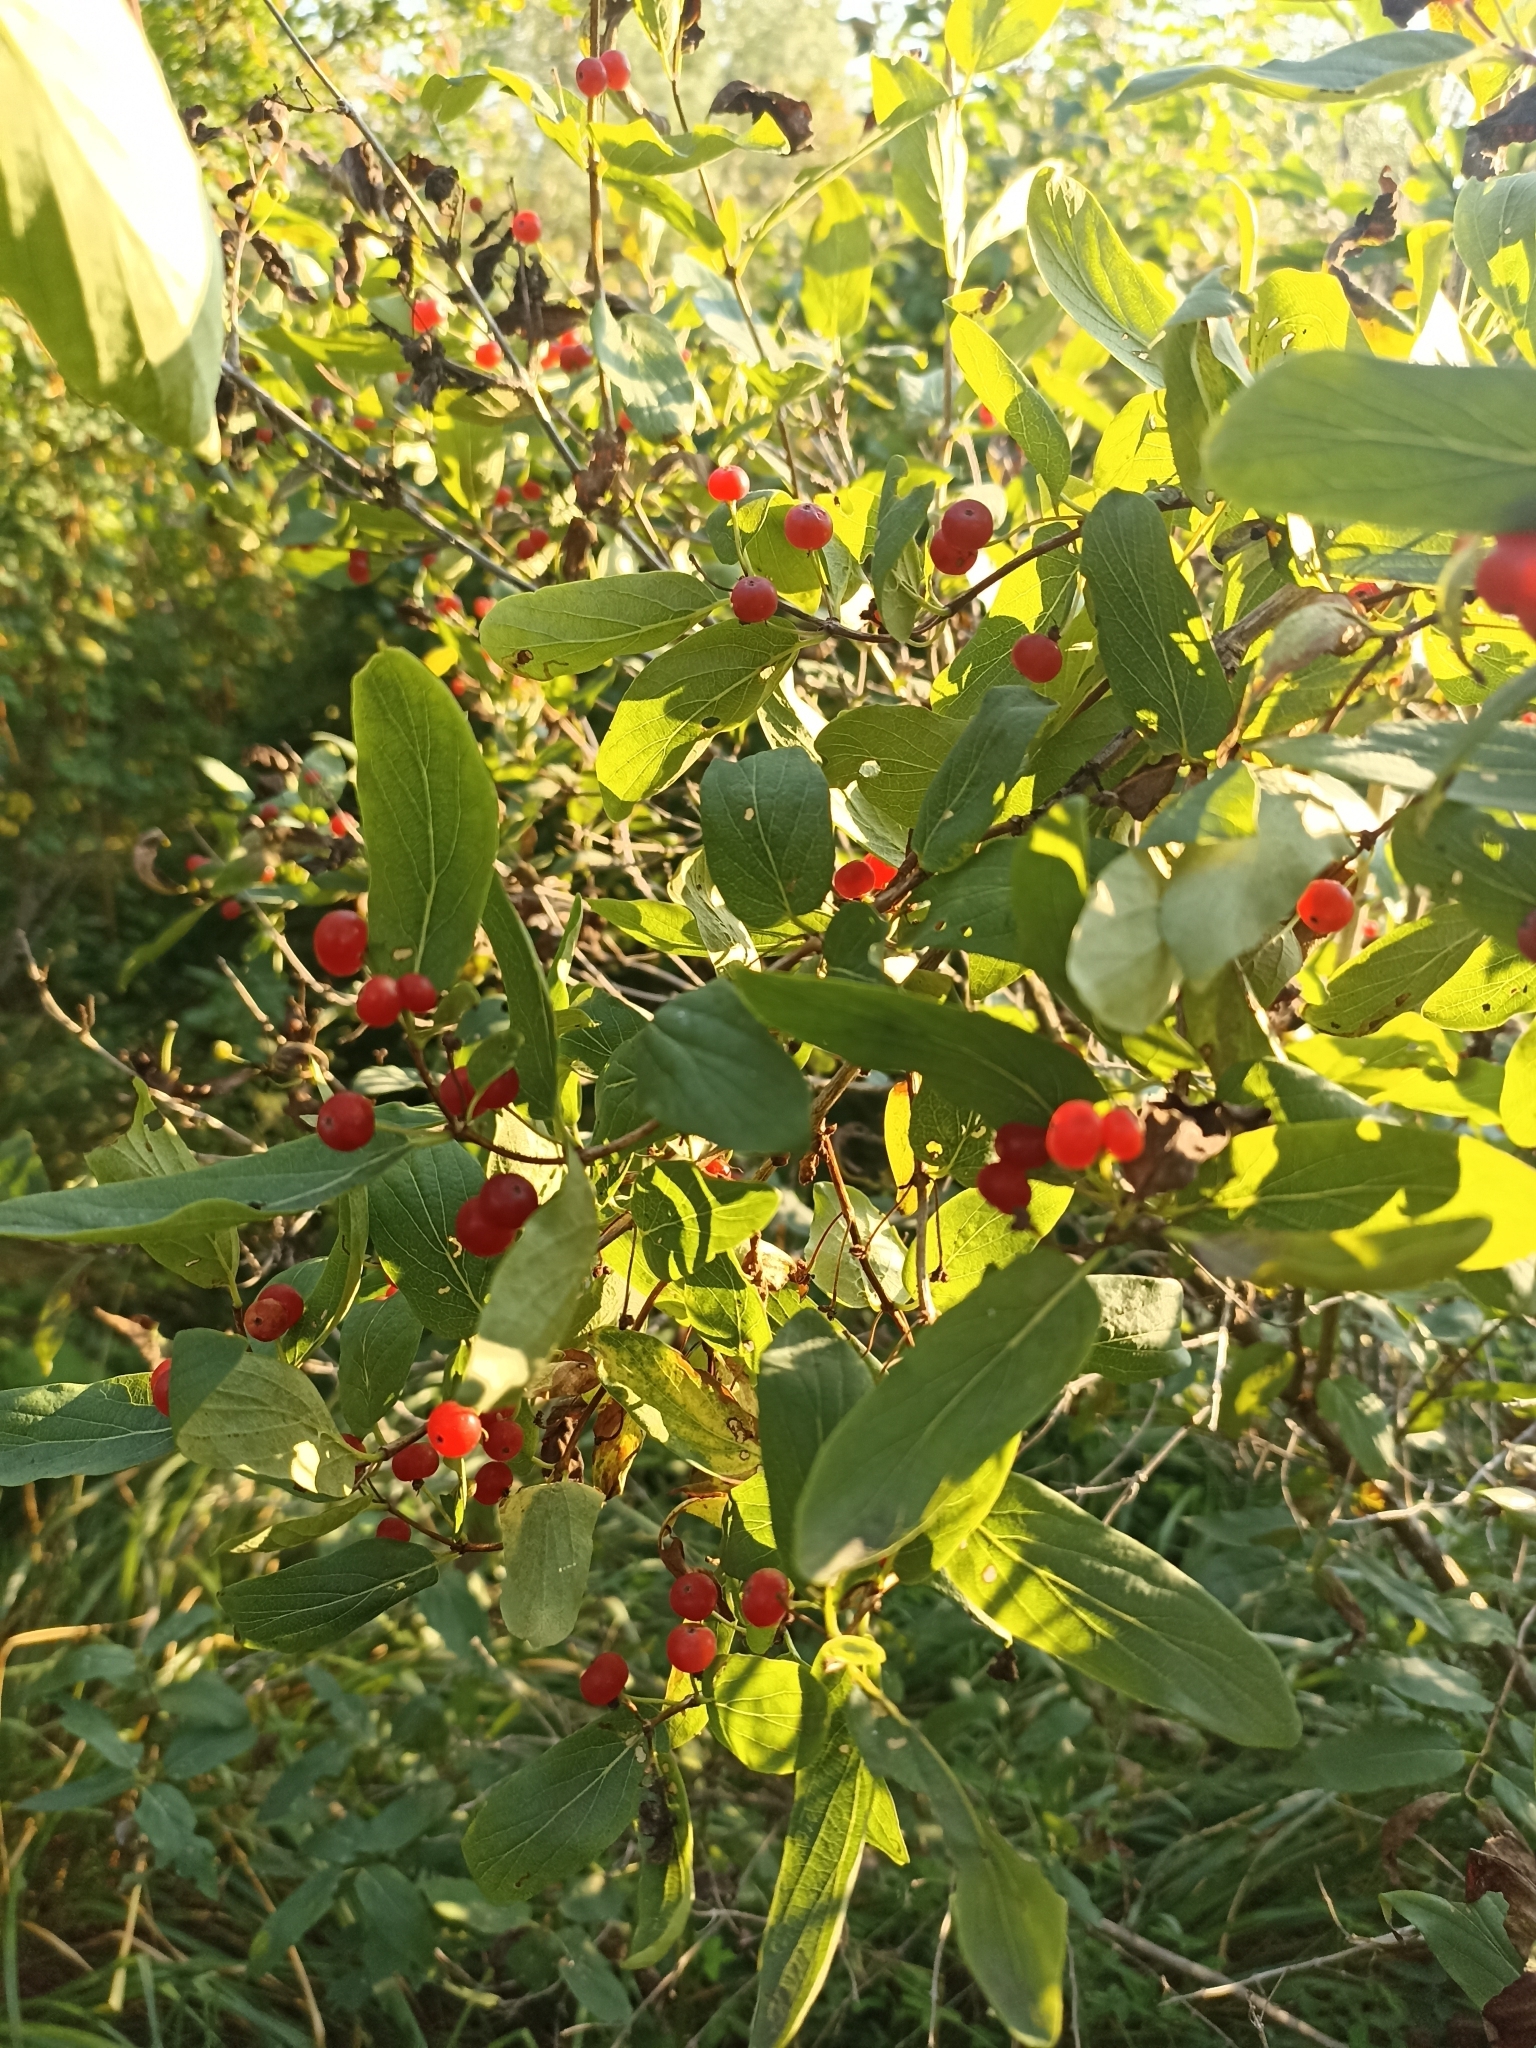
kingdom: Plantae
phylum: Tracheophyta
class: Magnoliopsida
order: Dipsacales
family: Caprifoliaceae
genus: Lonicera
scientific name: Lonicera tatarica
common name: Tatarian honeysuckle
